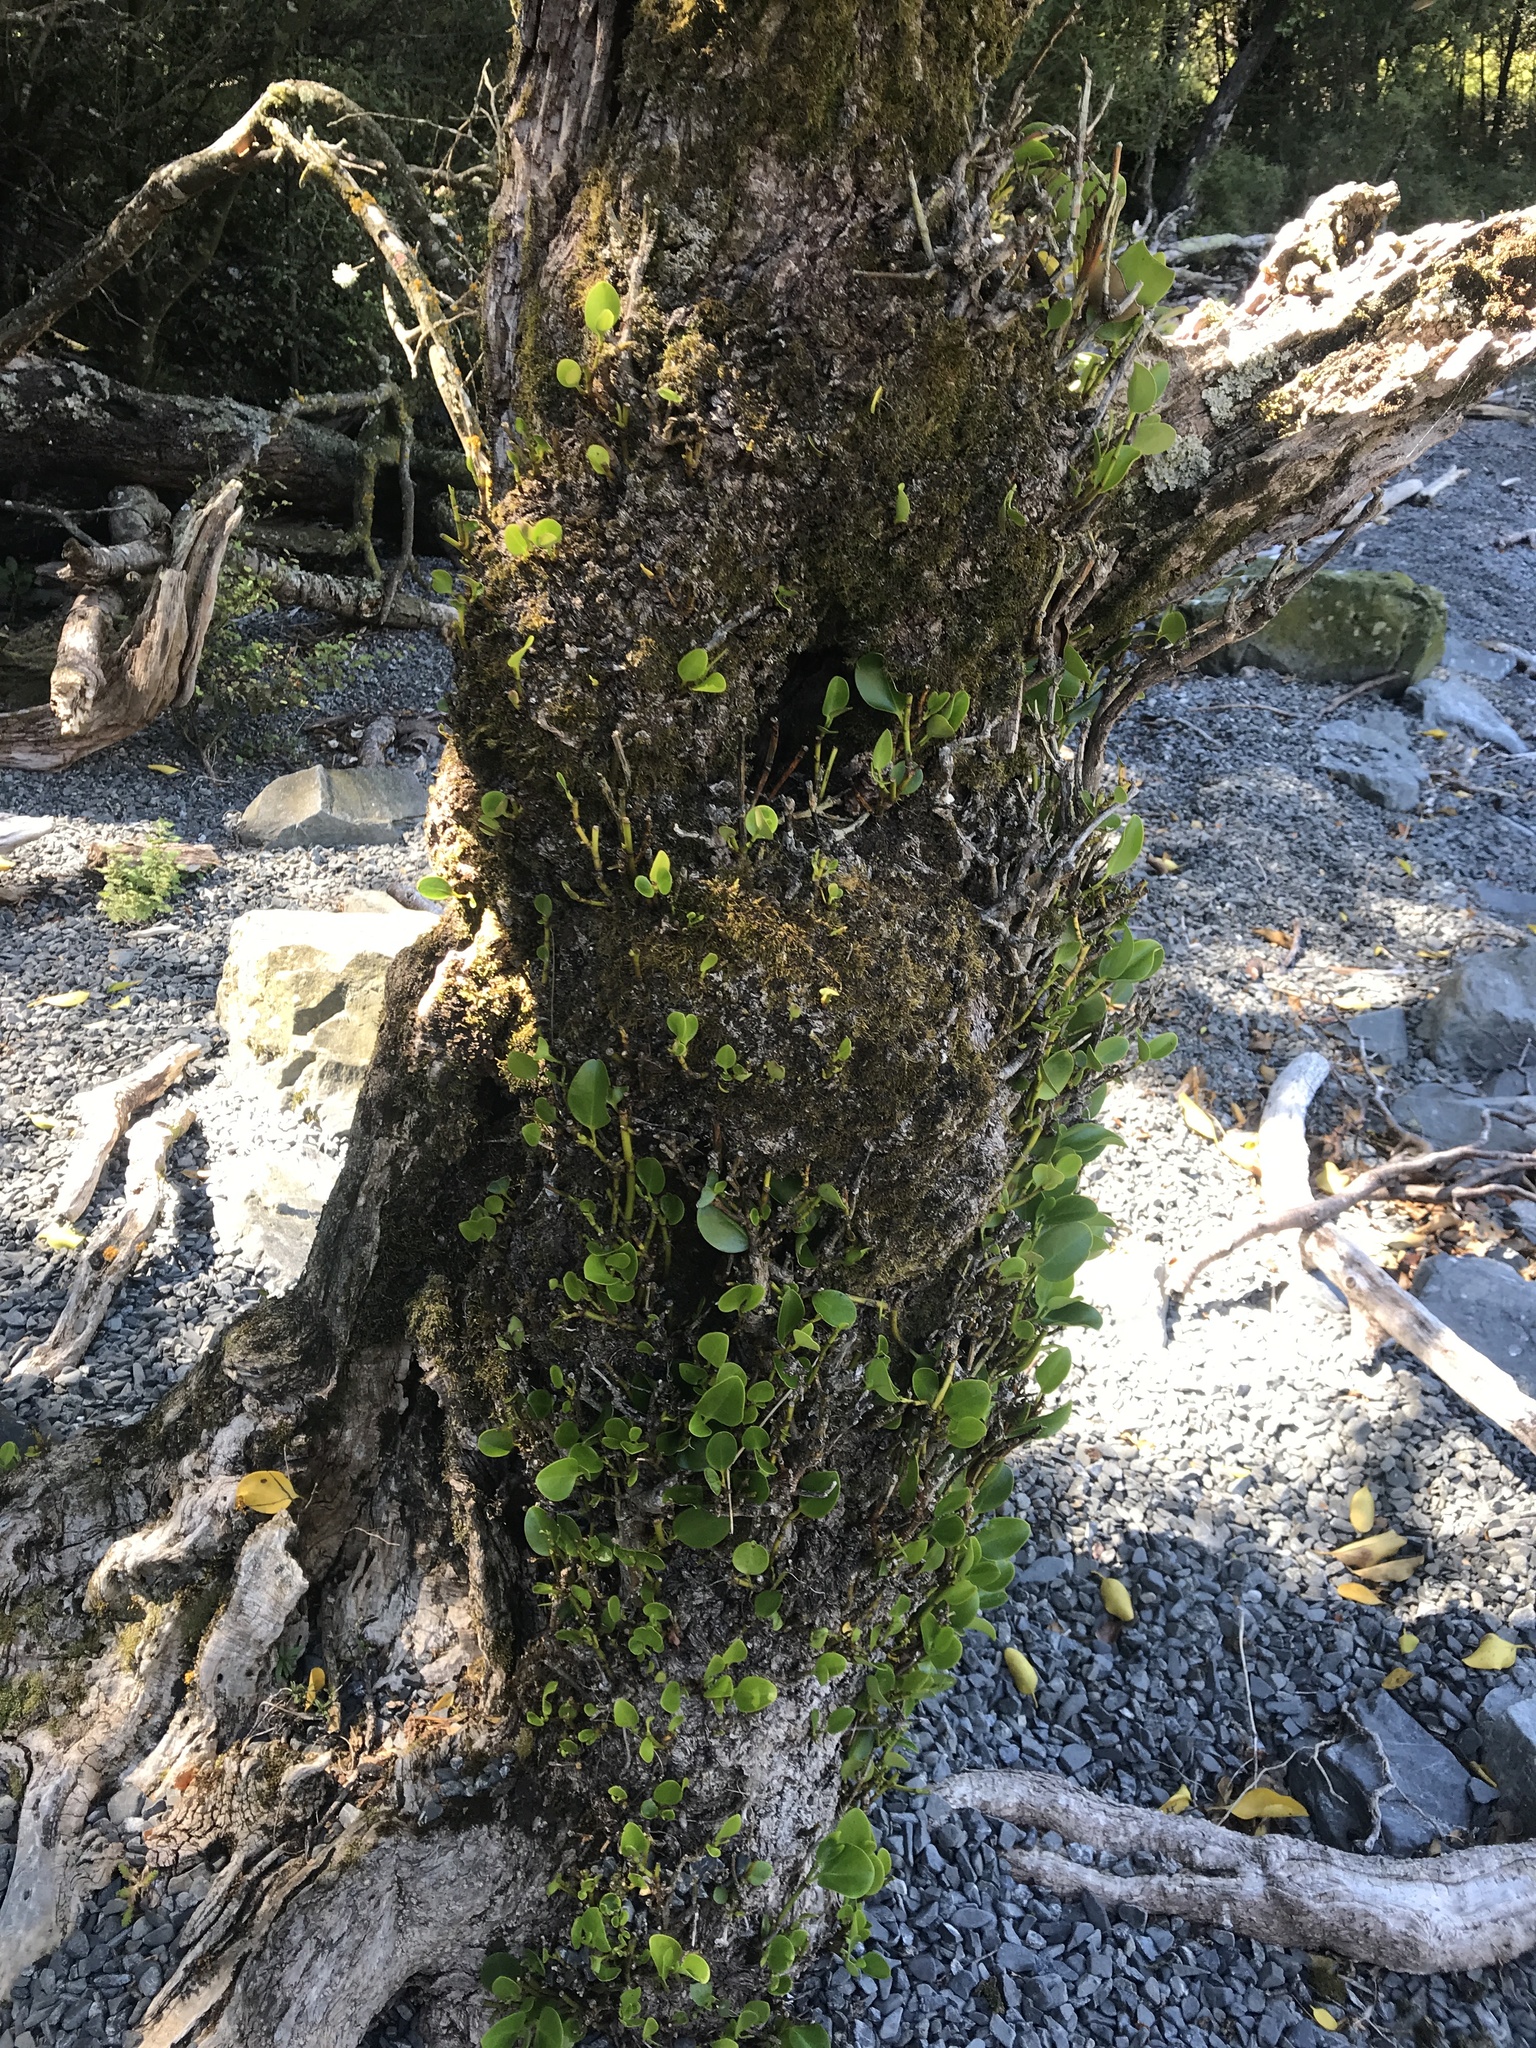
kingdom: Plantae
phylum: Tracheophyta
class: Magnoliopsida
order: Apiales
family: Griseliniaceae
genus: Griselinia
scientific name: Griselinia littoralis
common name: New zealand broadleaf
